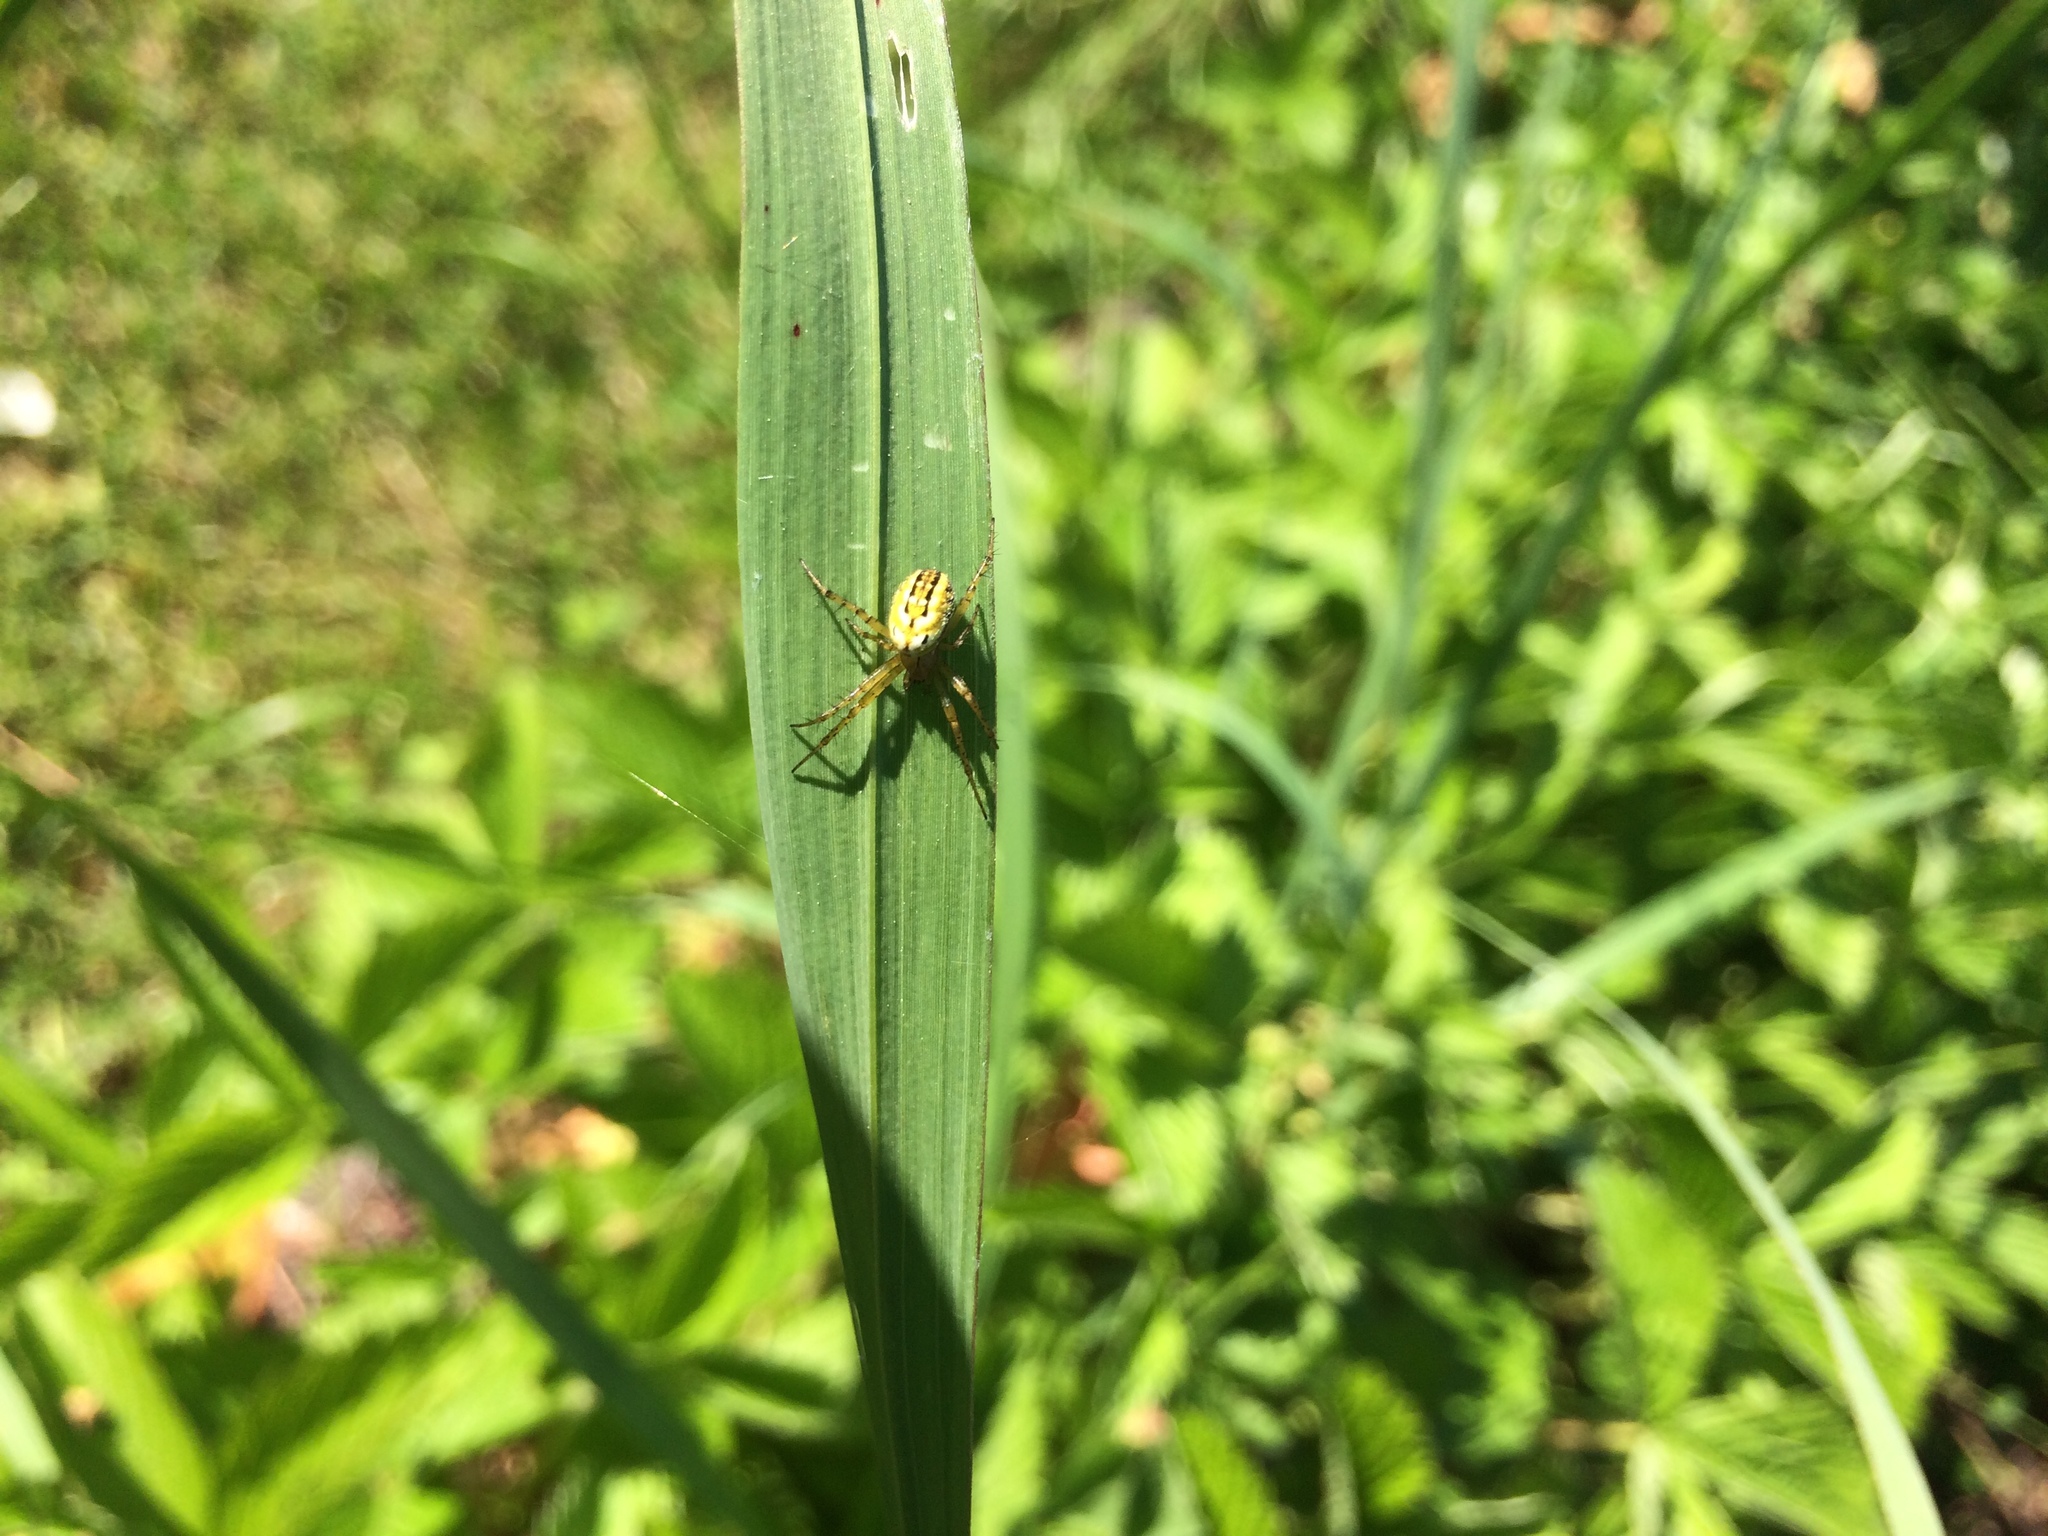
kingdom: Animalia
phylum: Arthropoda
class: Arachnida
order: Araneae
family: Araneidae
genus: Mangora
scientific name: Mangora acalypha
